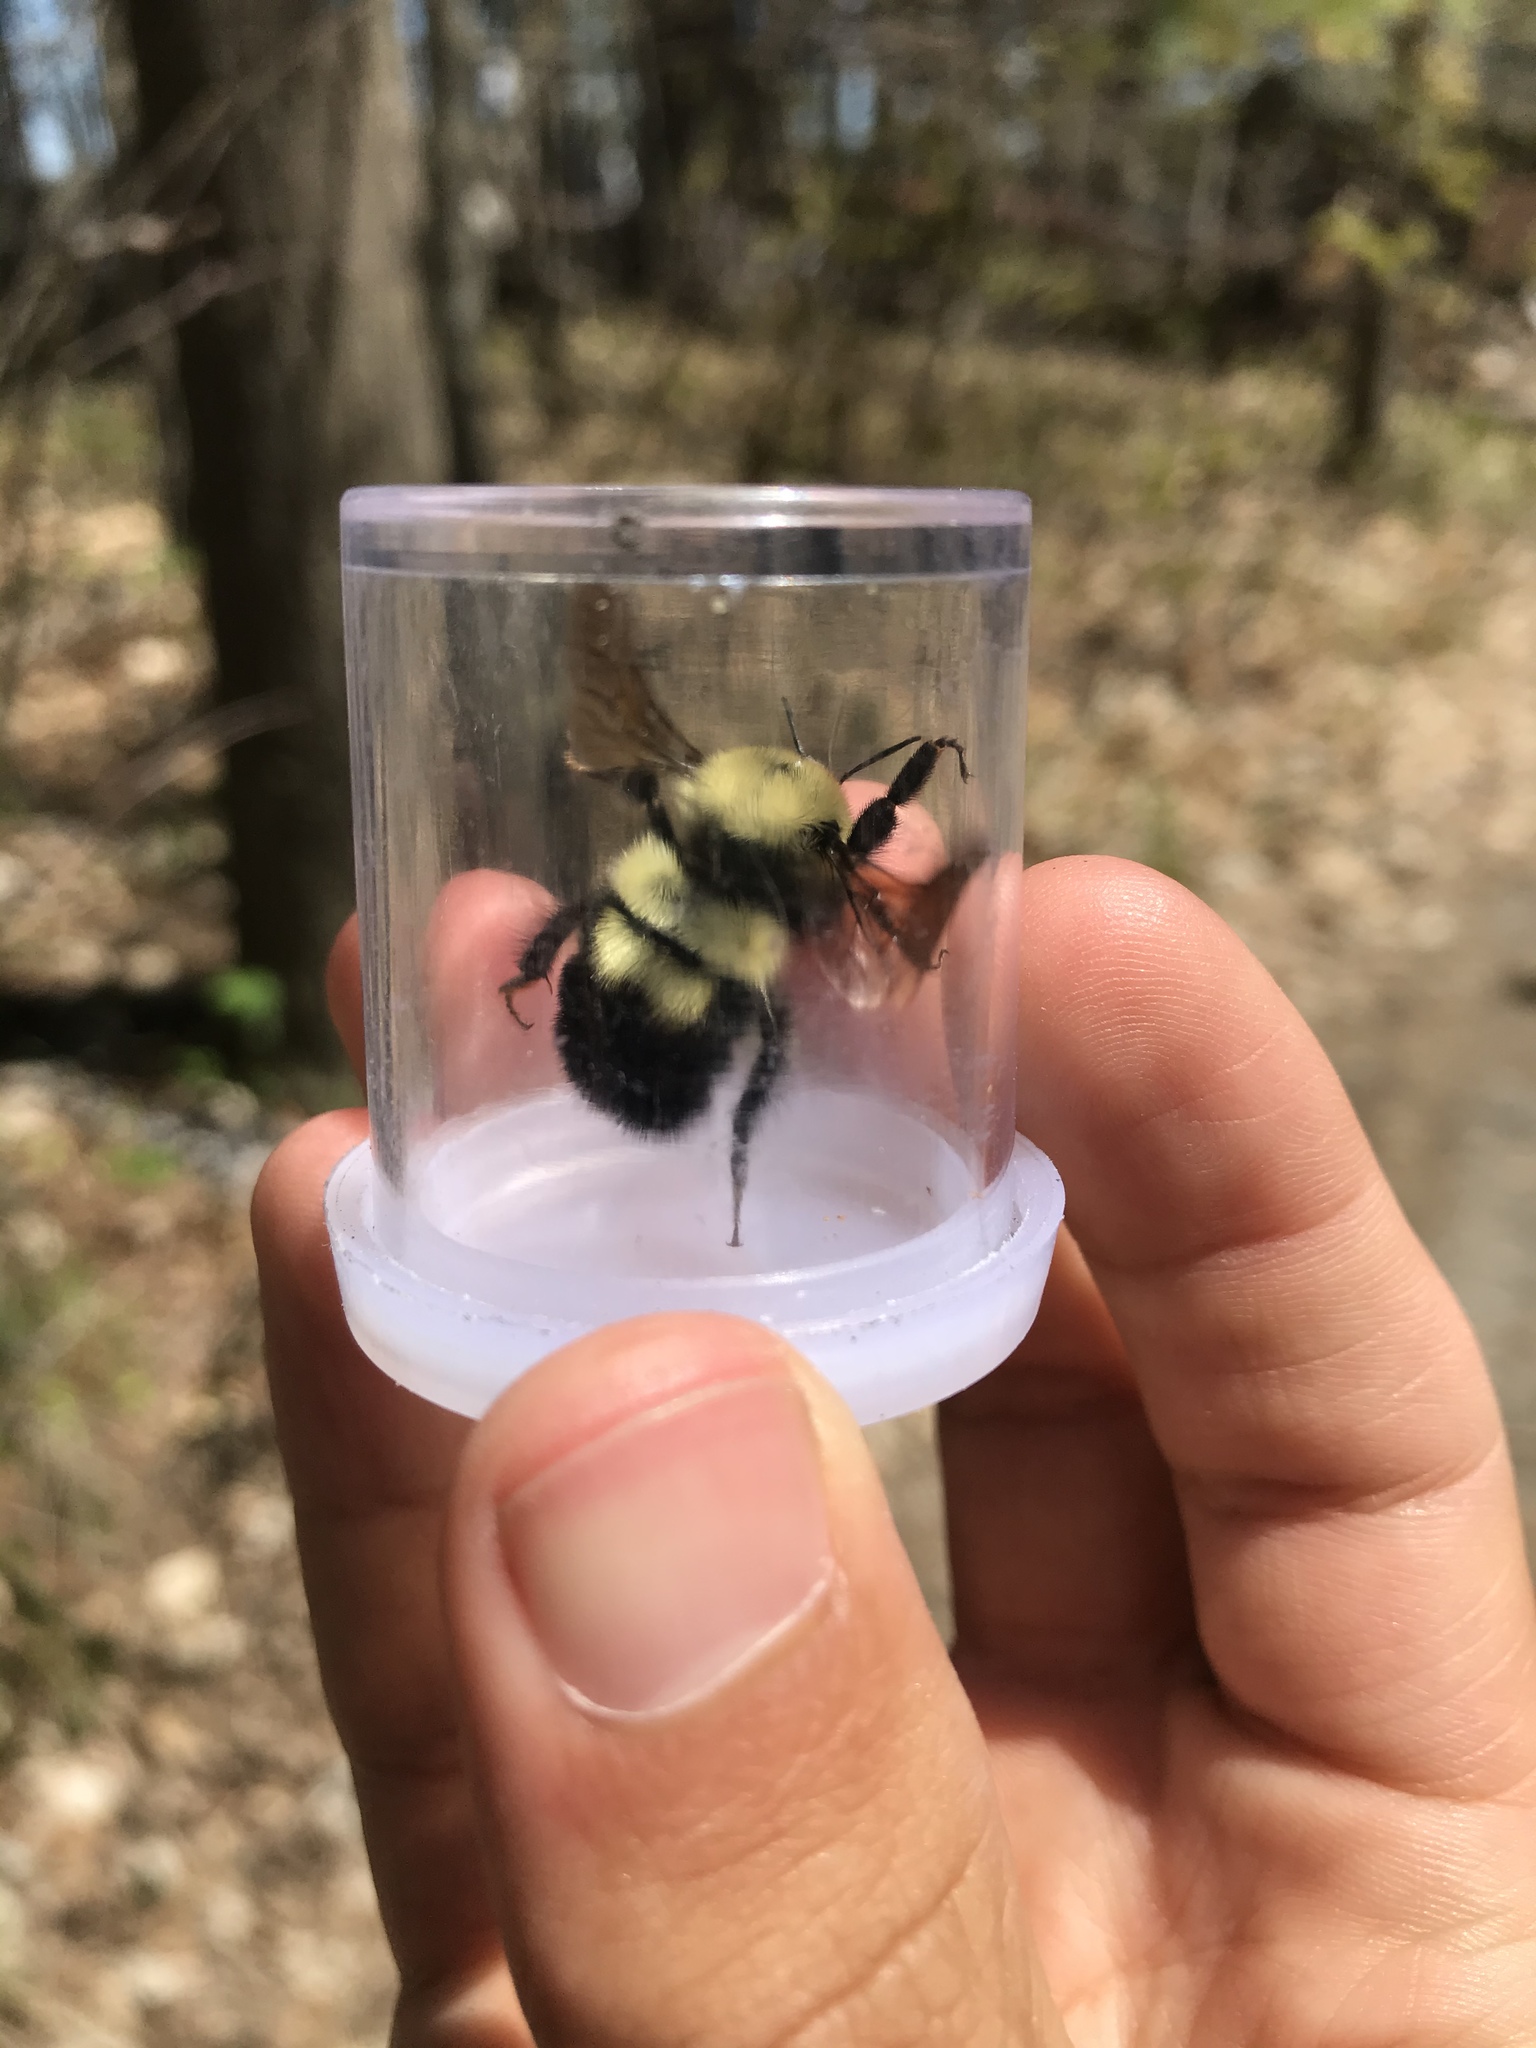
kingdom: Animalia
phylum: Arthropoda
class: Insecta
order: Hymenoptera
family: Apidae
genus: Bombus
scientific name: Bombus bimaculatus
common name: Two-spotted bumble bee
